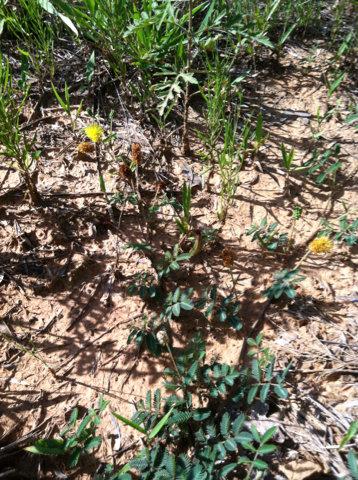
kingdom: Plantae
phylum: Tracheophyta
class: Magnoliopsida
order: Fabales
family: Fabaceae
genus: Neptunia
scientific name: Neptunia lutea
